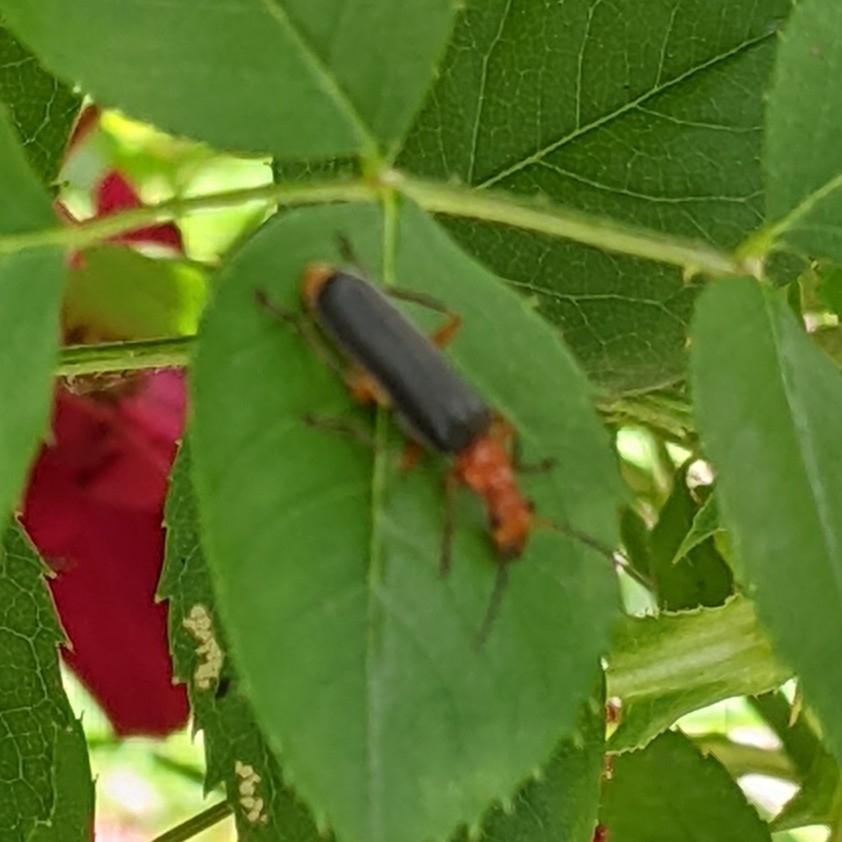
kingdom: Animalia
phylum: Arthropoda
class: Insecta
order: Coleoptera
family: Cantharidae
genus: Podabrus
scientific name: Podabrus tomentosus
